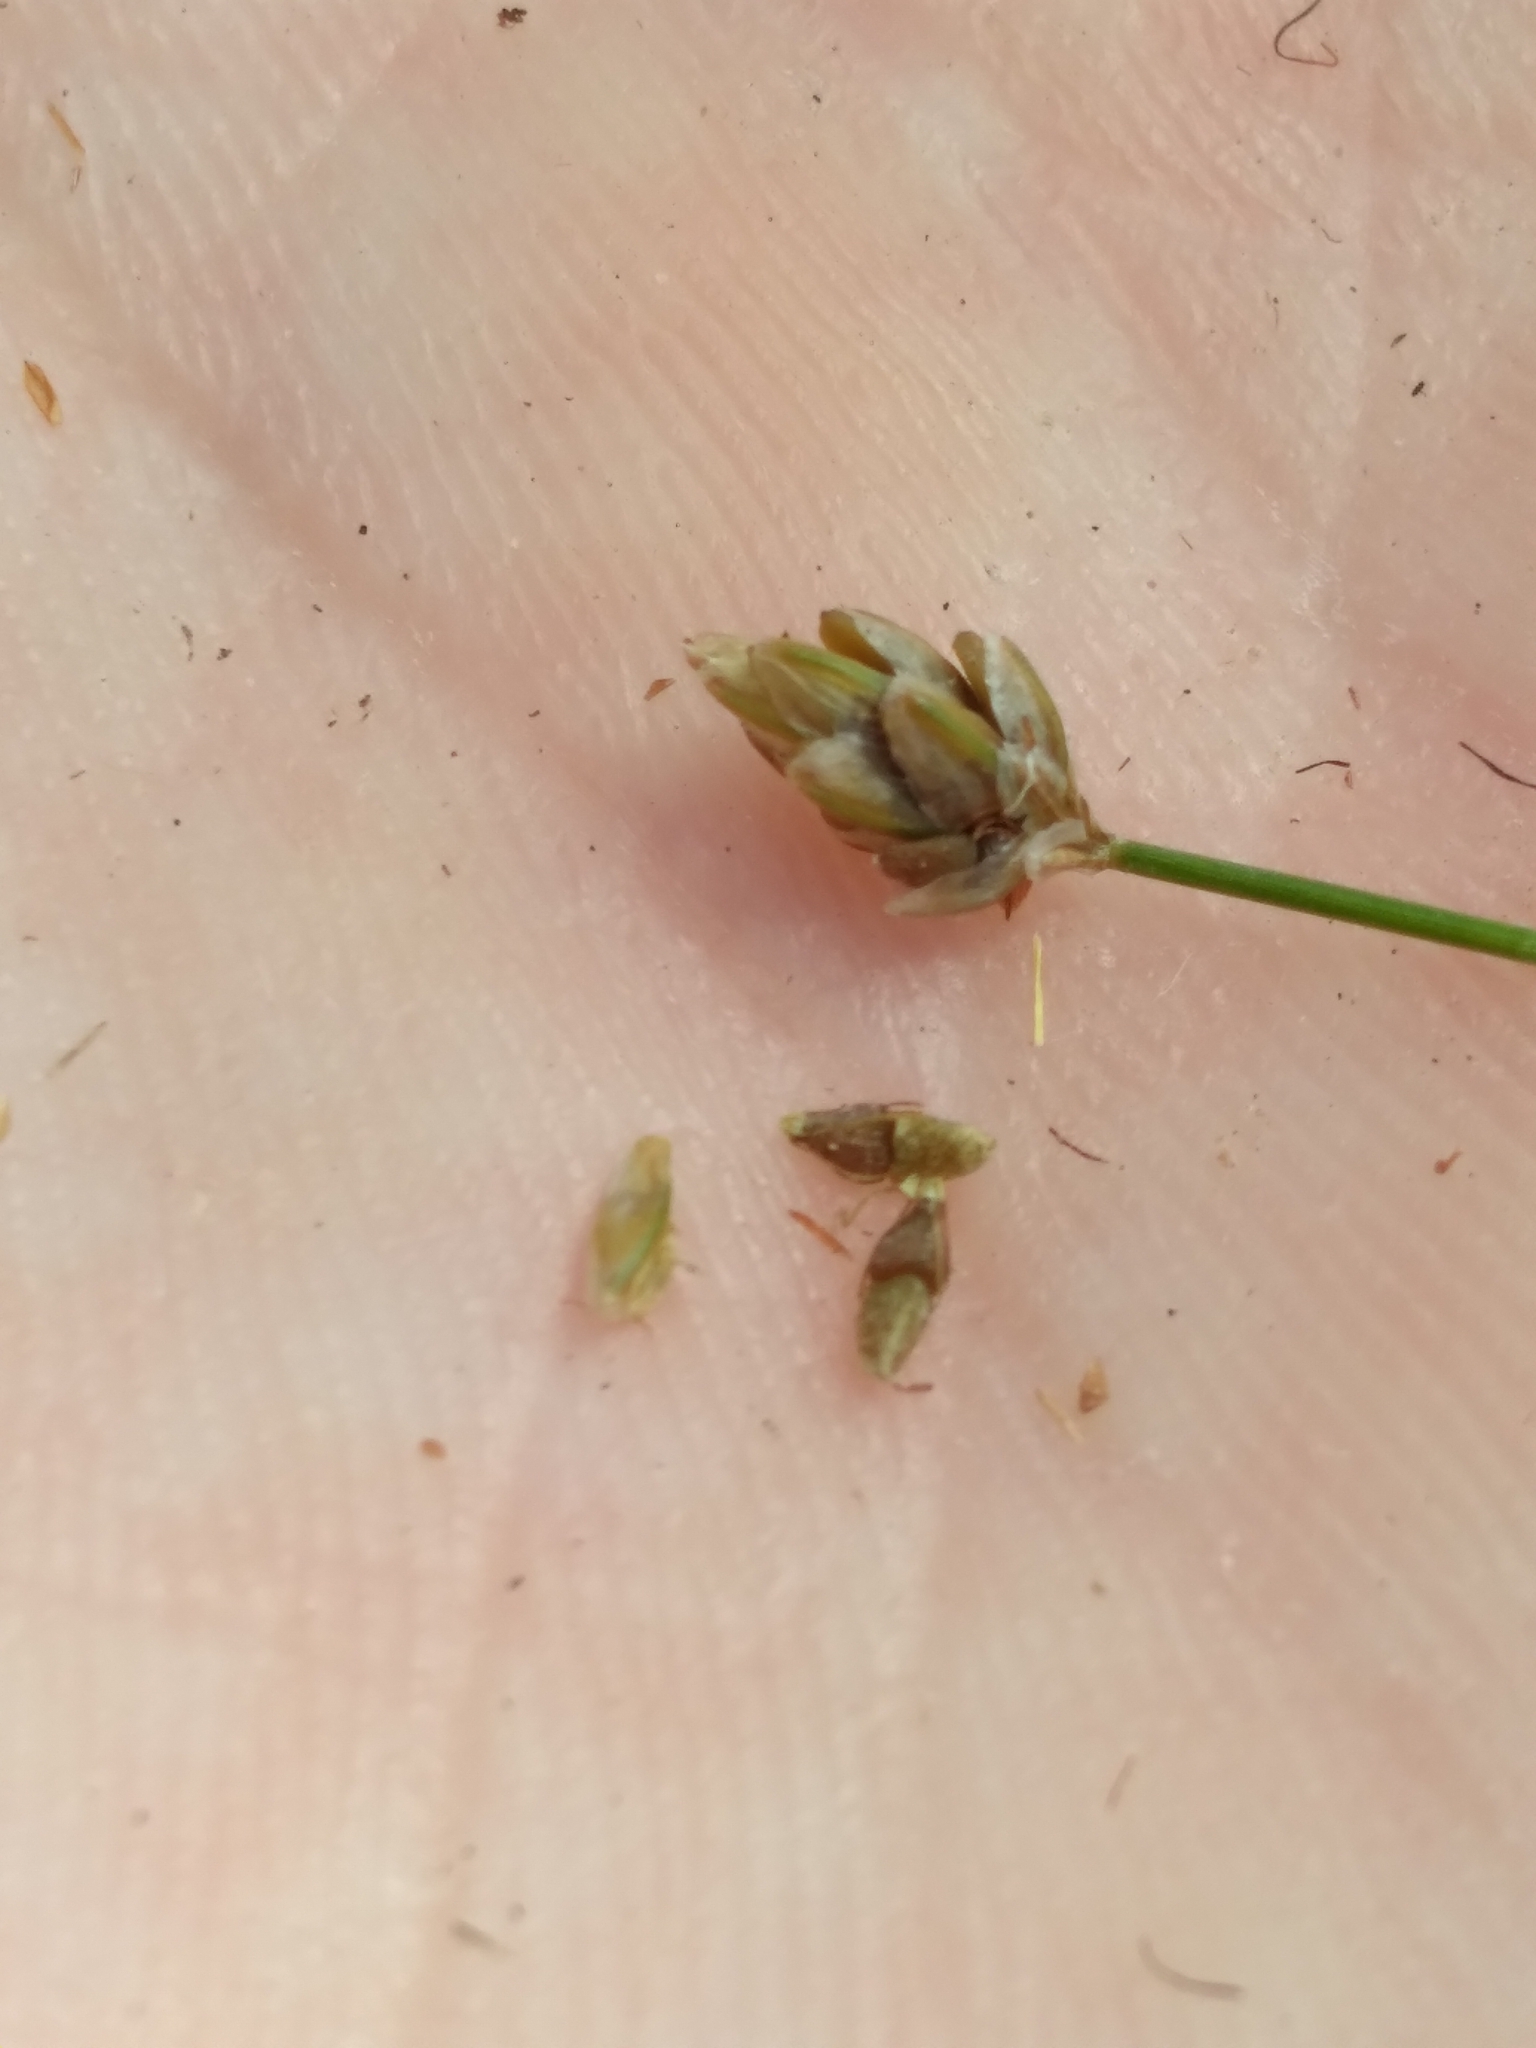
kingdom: Plantae
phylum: Tracheophyta
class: Liliopsida
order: Poales
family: Cyperaceae
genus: Eleocharis
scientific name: Eleocharis tuberculosa
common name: Cone-cup spikerush
